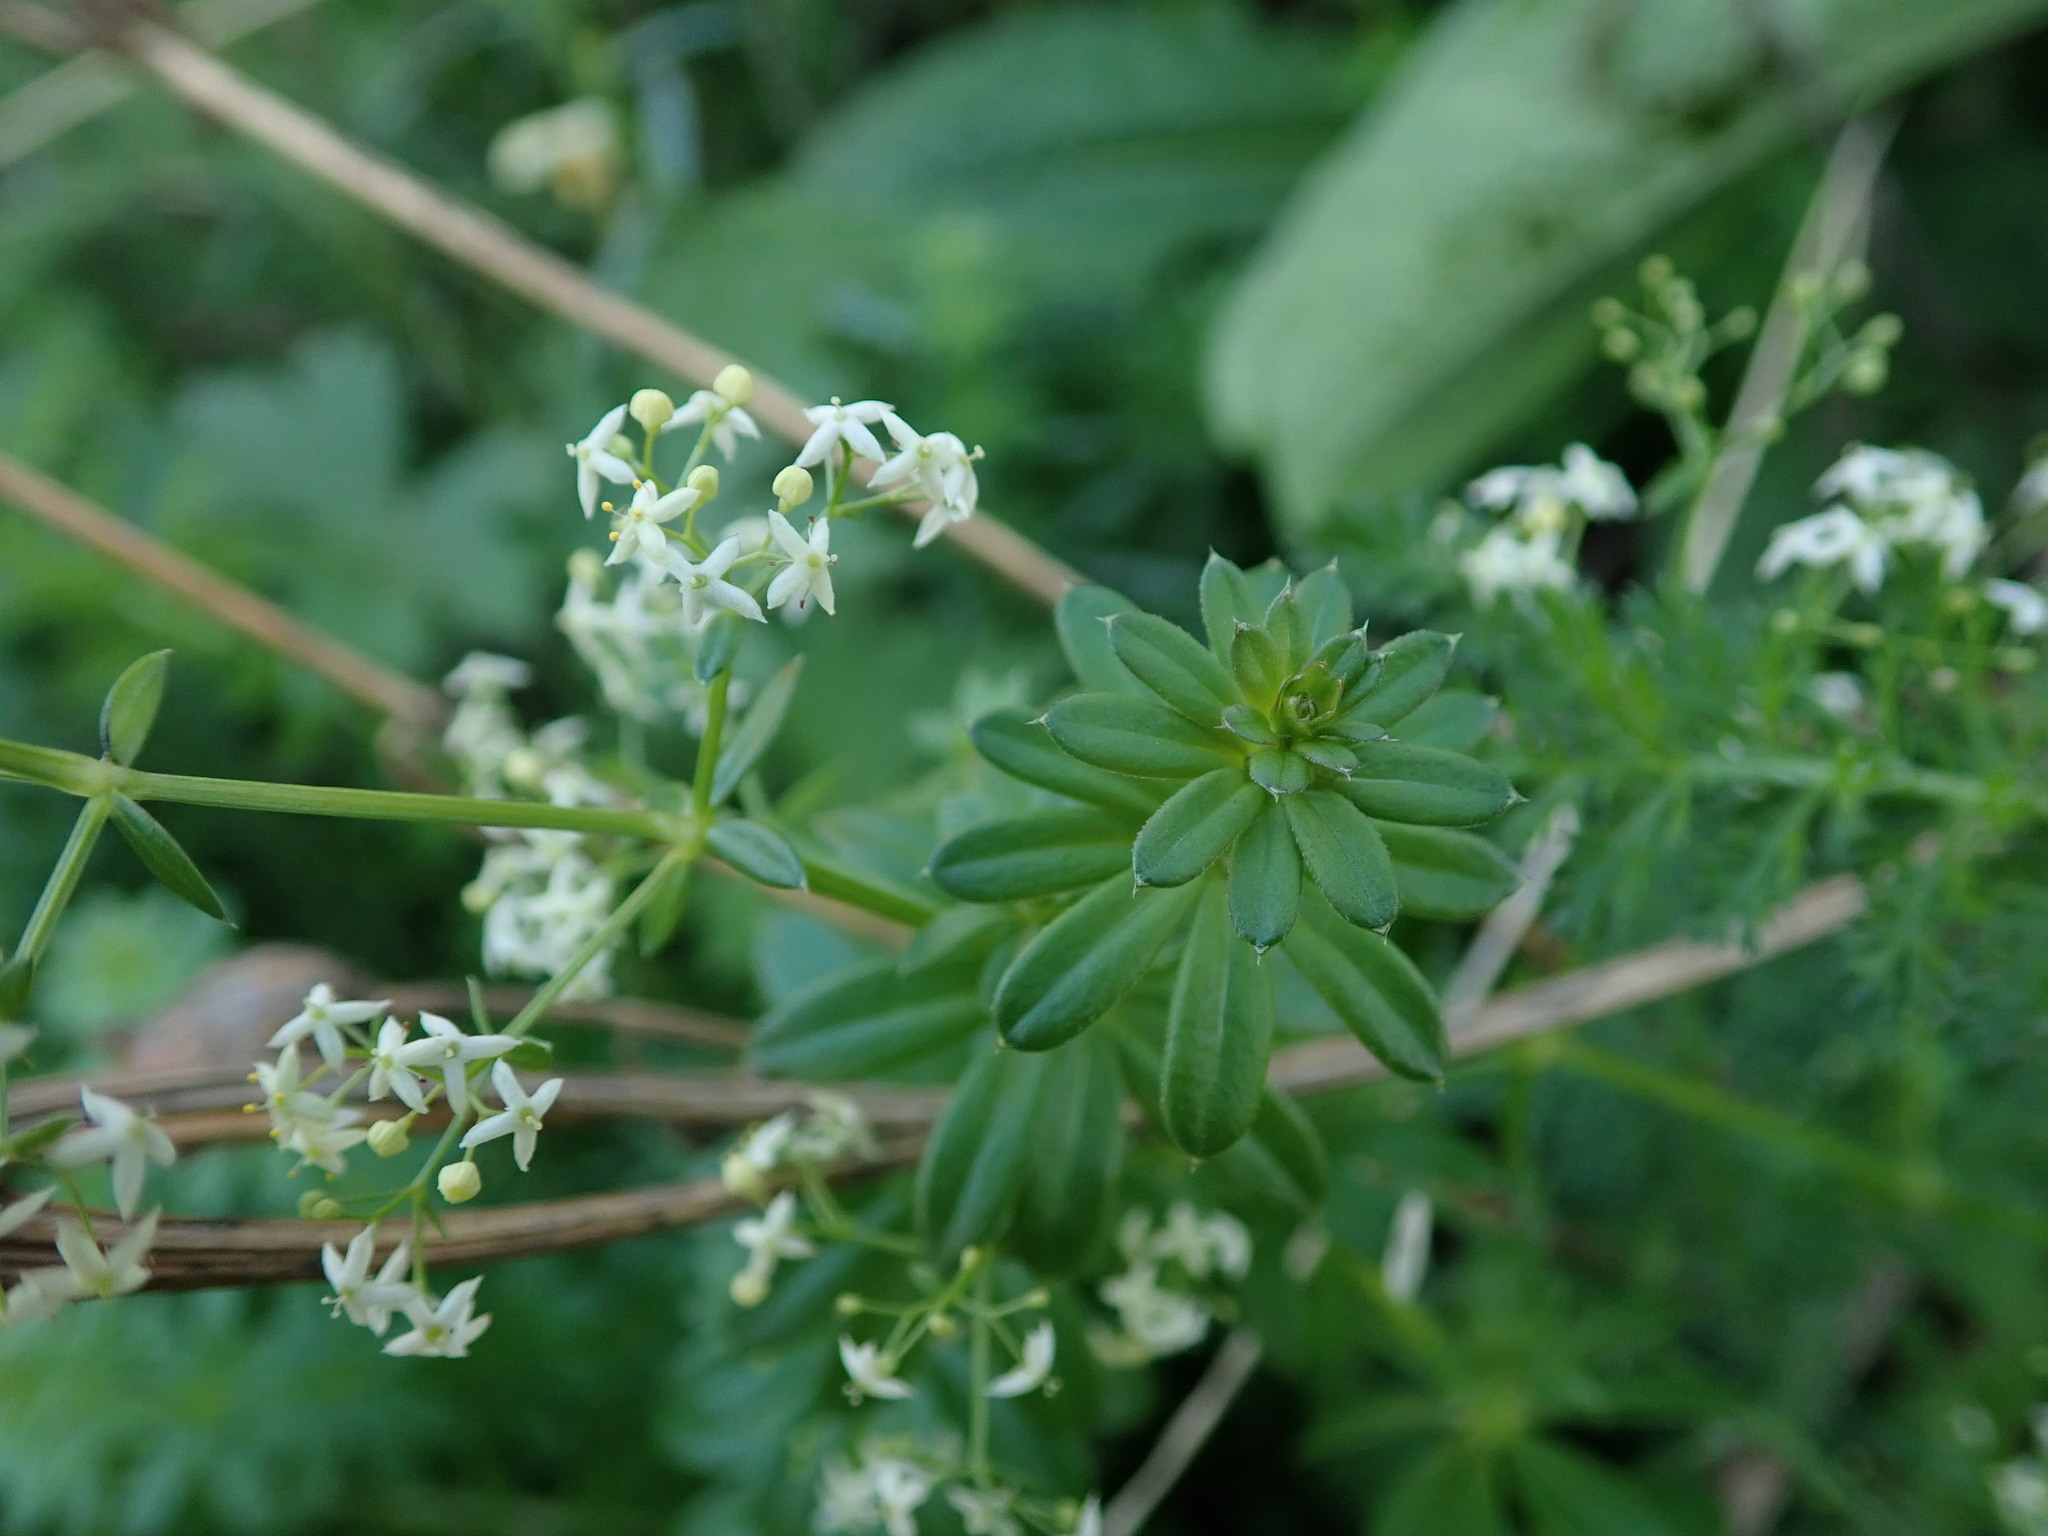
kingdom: Plantae
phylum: Tracheophyta
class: Magnoliopsida
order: Gentianales
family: Rubiaceae
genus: Galium
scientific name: Galium album
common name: White bedstraw
